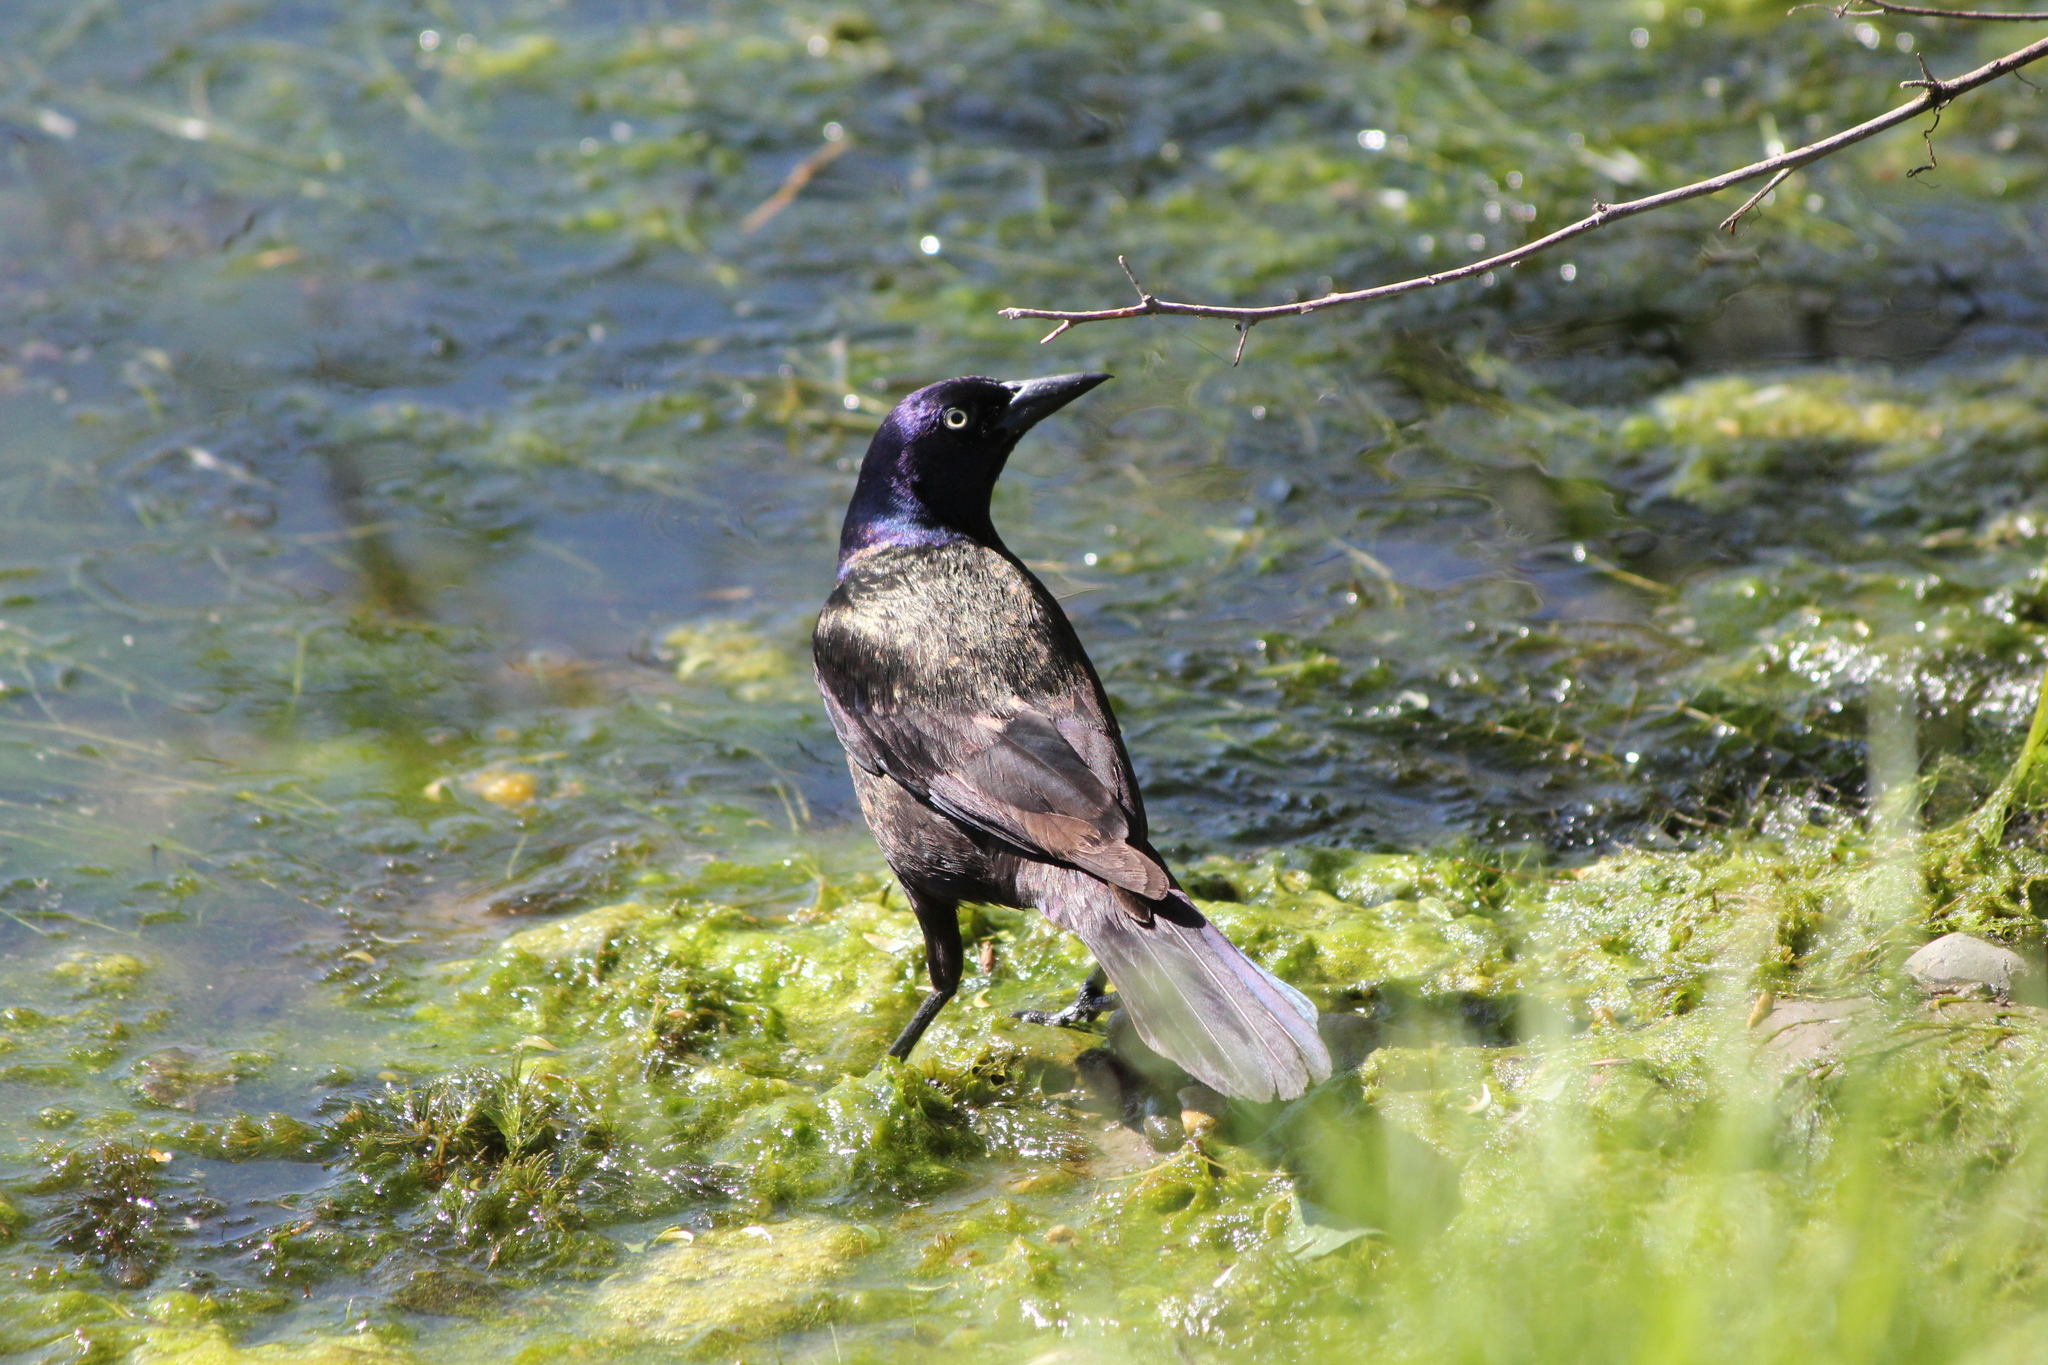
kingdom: Animalia
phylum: Chordata
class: Aves
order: Passeriformes
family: Icteridae
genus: Quiscalus
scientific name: Quiscalus quiscula
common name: Common grackle
